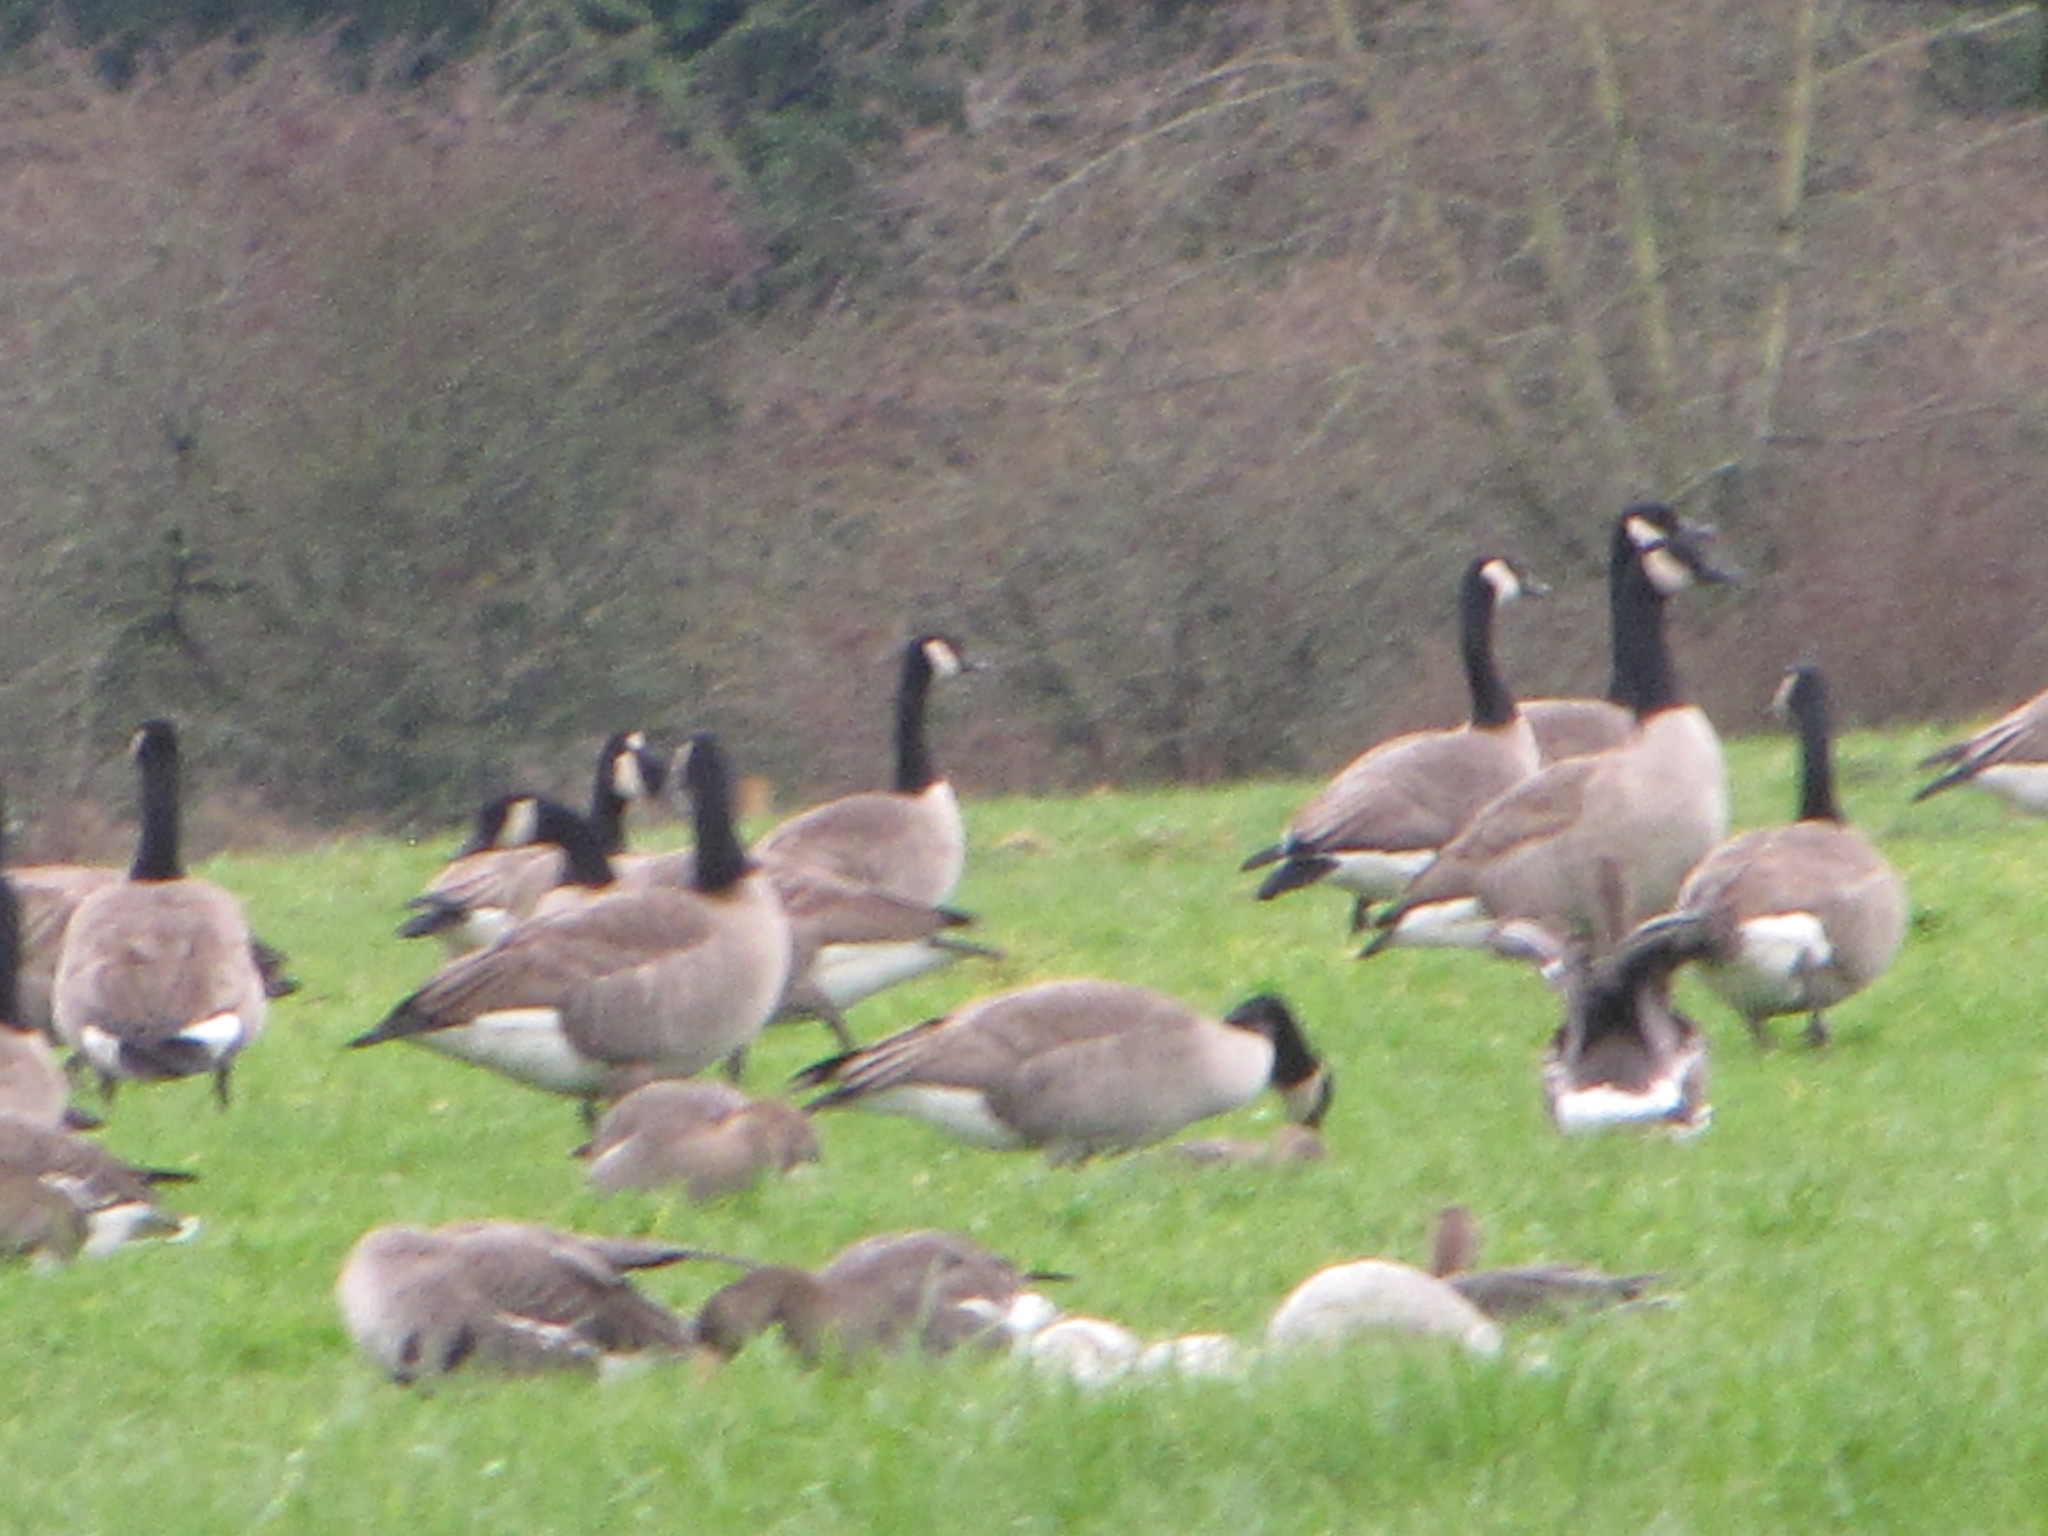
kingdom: Animalia
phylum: Chordata
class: Aves
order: Anseriformes
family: Anatidae
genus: Branta
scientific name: Branta canadensis
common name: Canada goose
